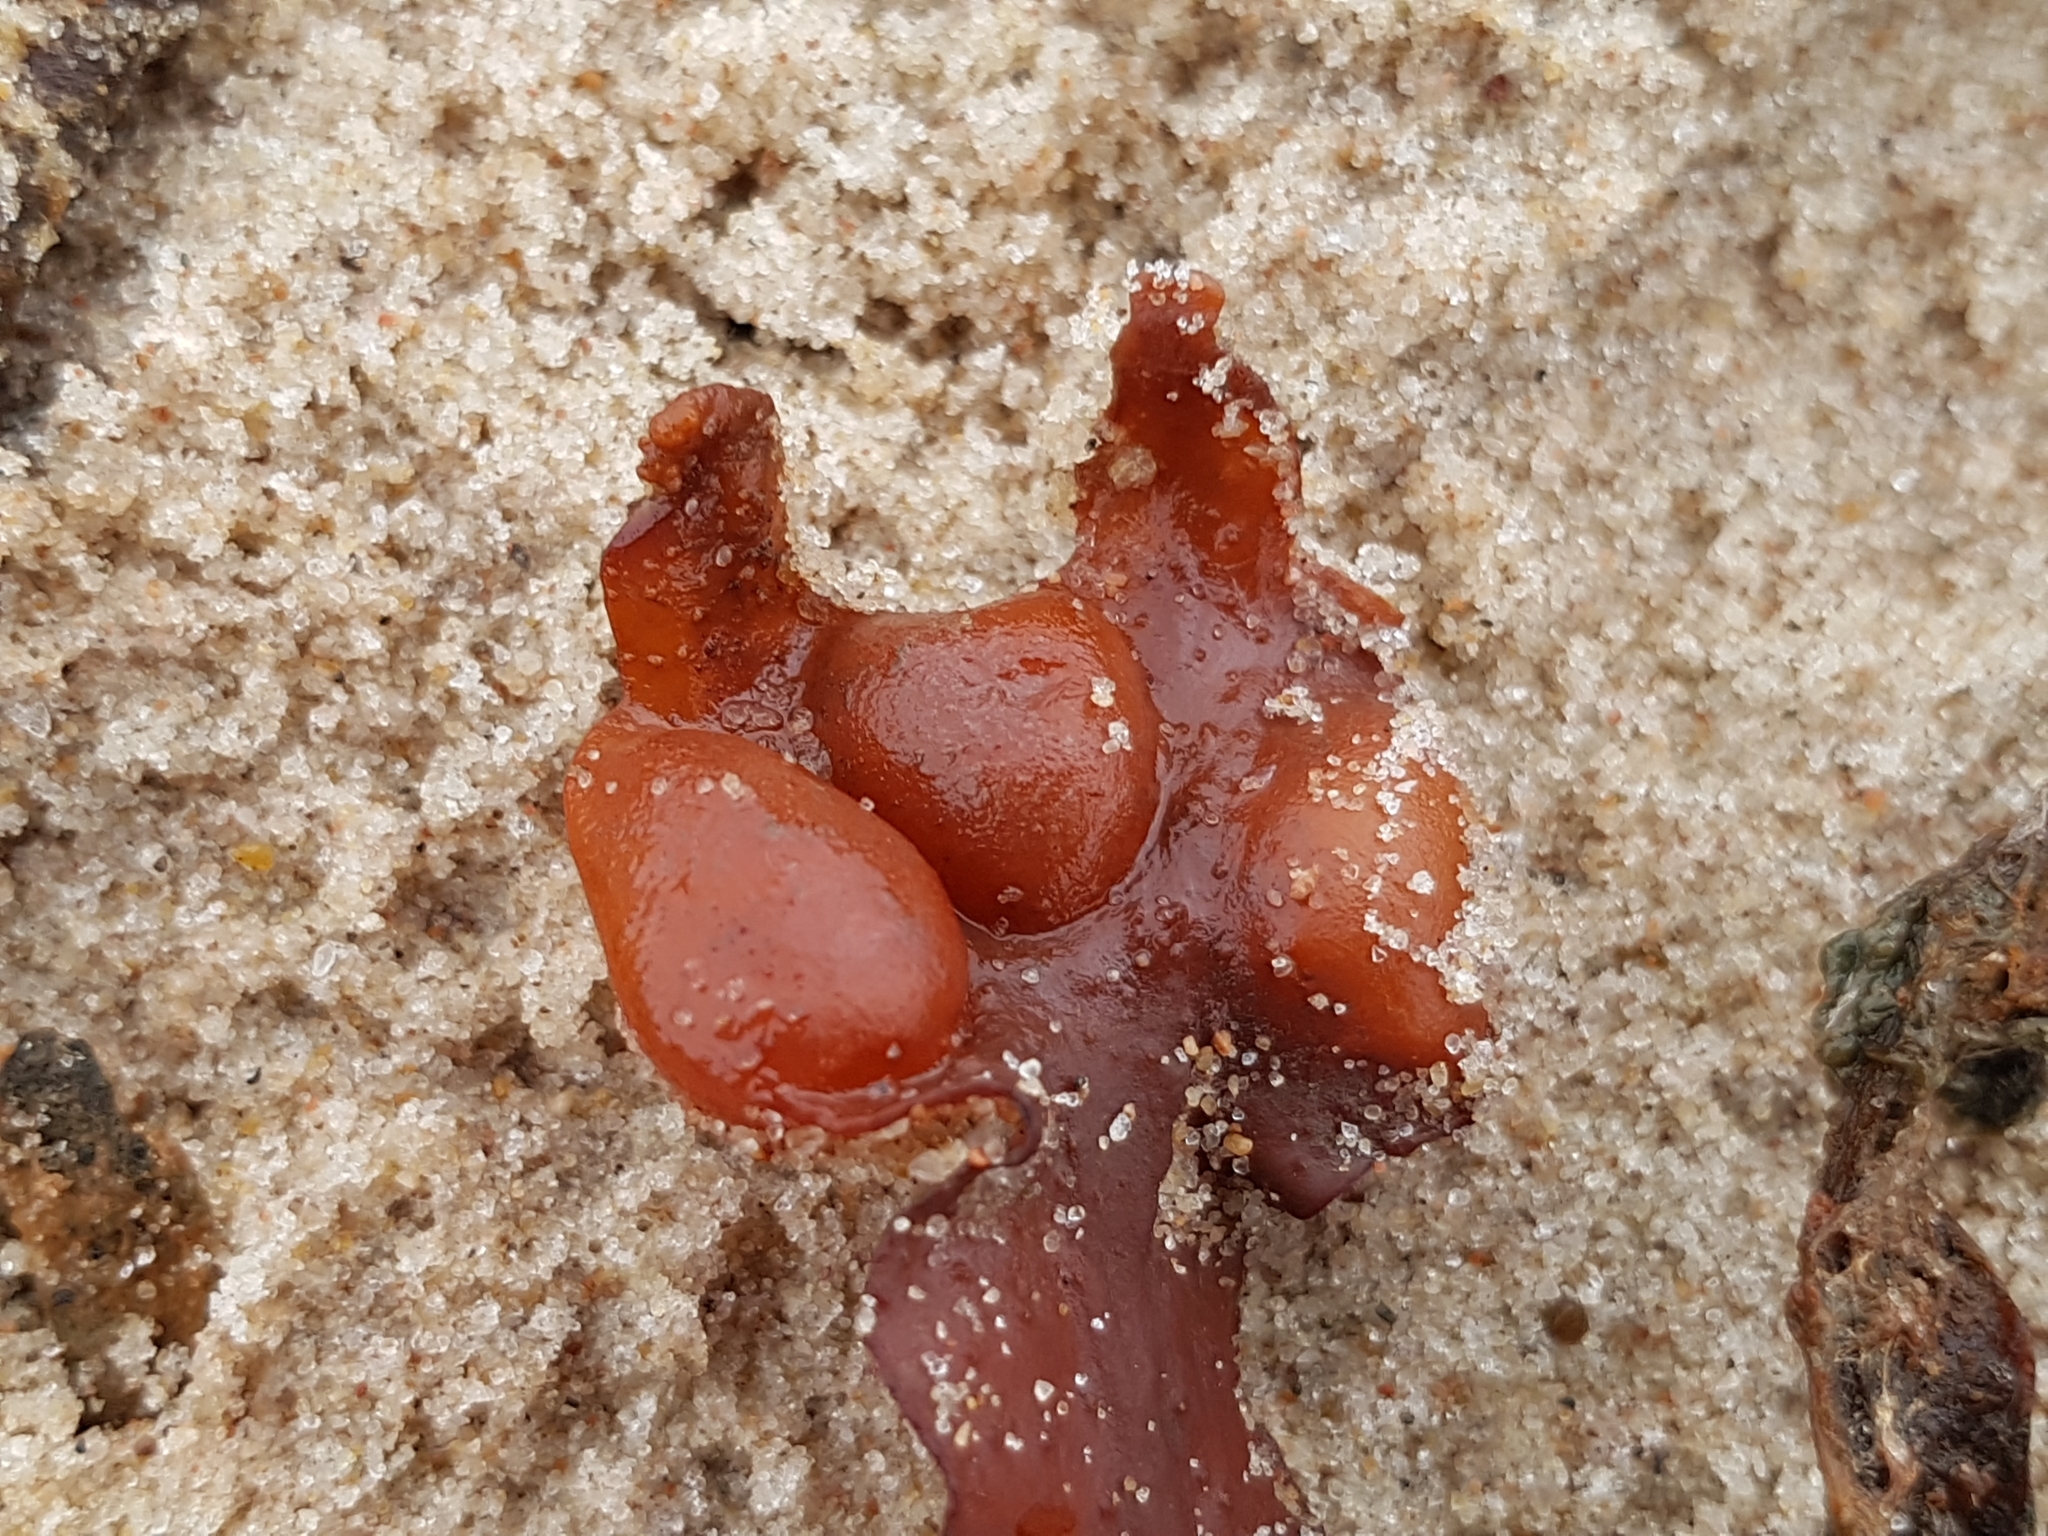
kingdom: Chromista
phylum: Ochrophyta
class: Phaeophyceae
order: Fucales
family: Fucaceae
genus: Fucus
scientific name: Fucus vesiculosus
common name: Bladder wrack
